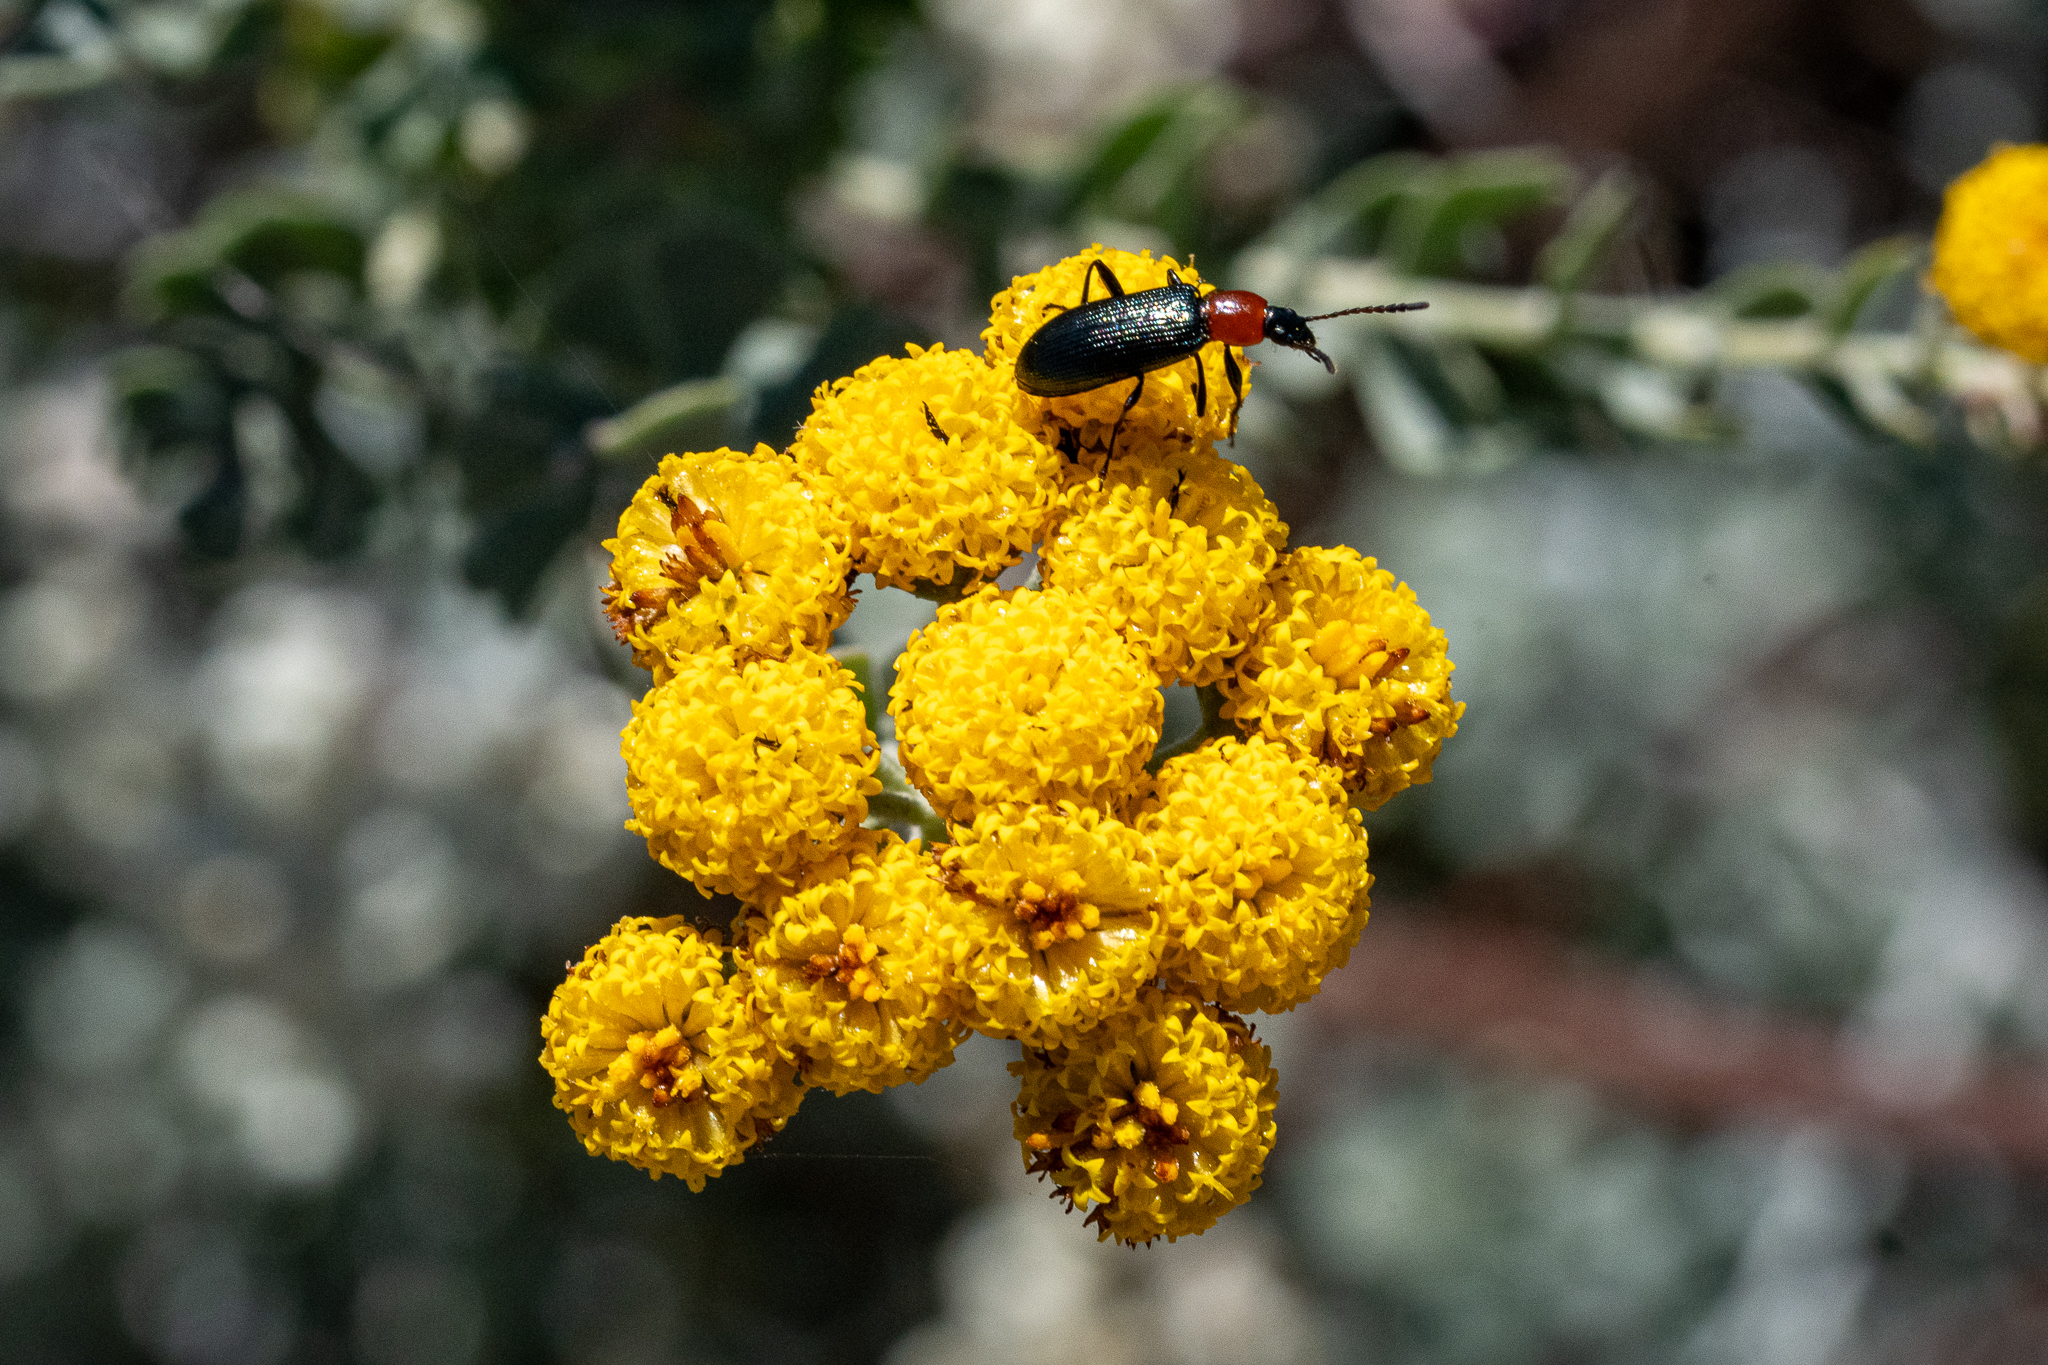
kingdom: Plantae
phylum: Tracheophyta
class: Magnoliopsida
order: Asterales
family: Asteraceae
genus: Athanasia
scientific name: Athanasia trifurcata
